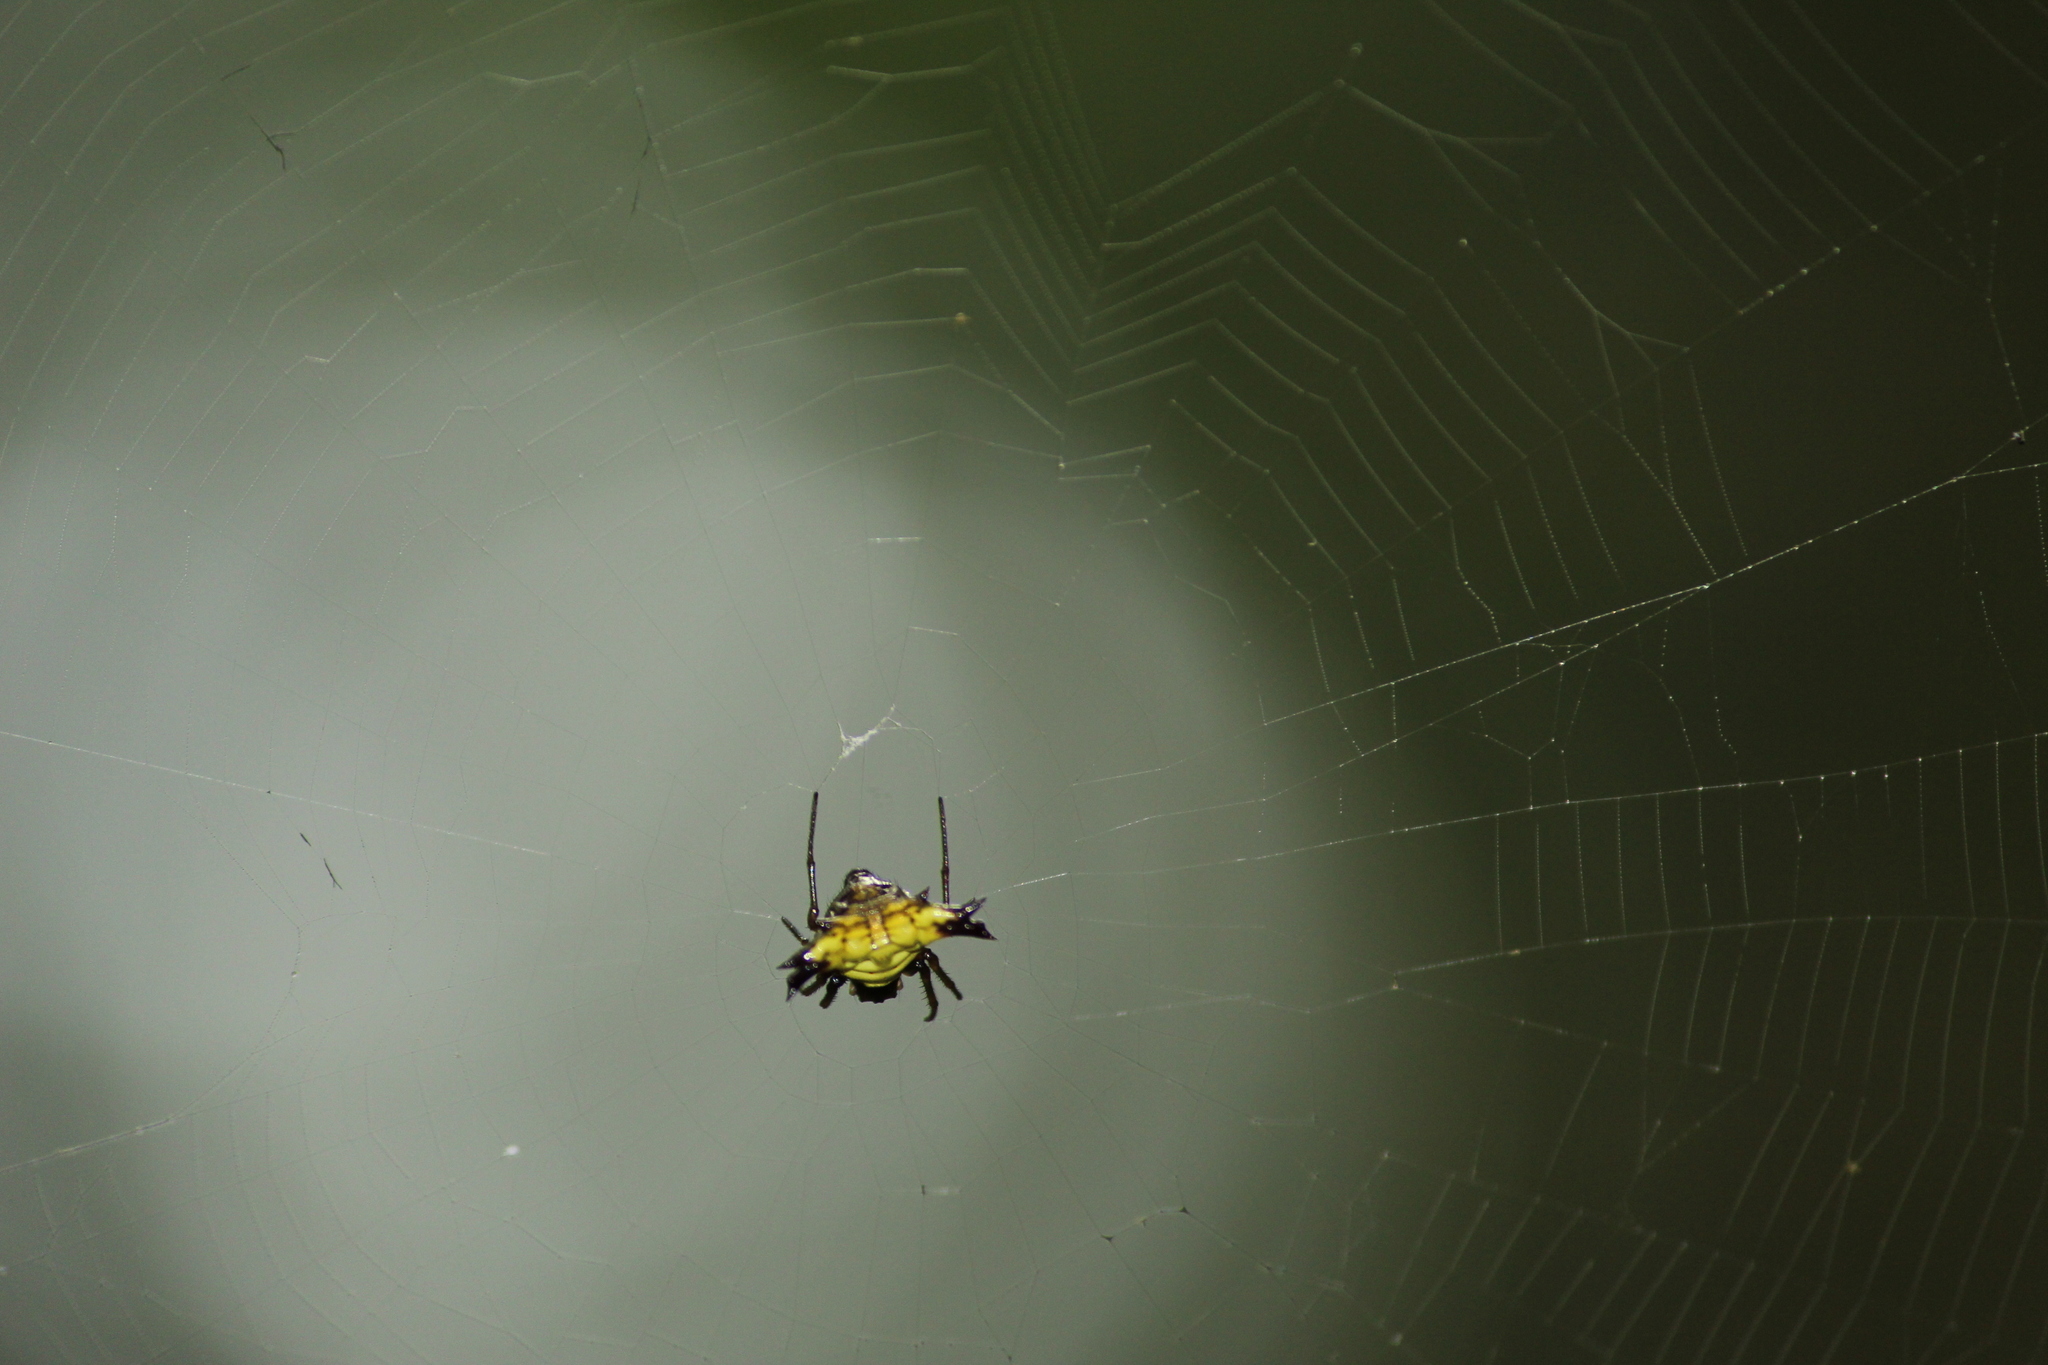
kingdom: Animalia
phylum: Arthropoda
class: Arachnida
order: Araneae
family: Araneidae
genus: Micrathena
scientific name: Micrathena digitata
